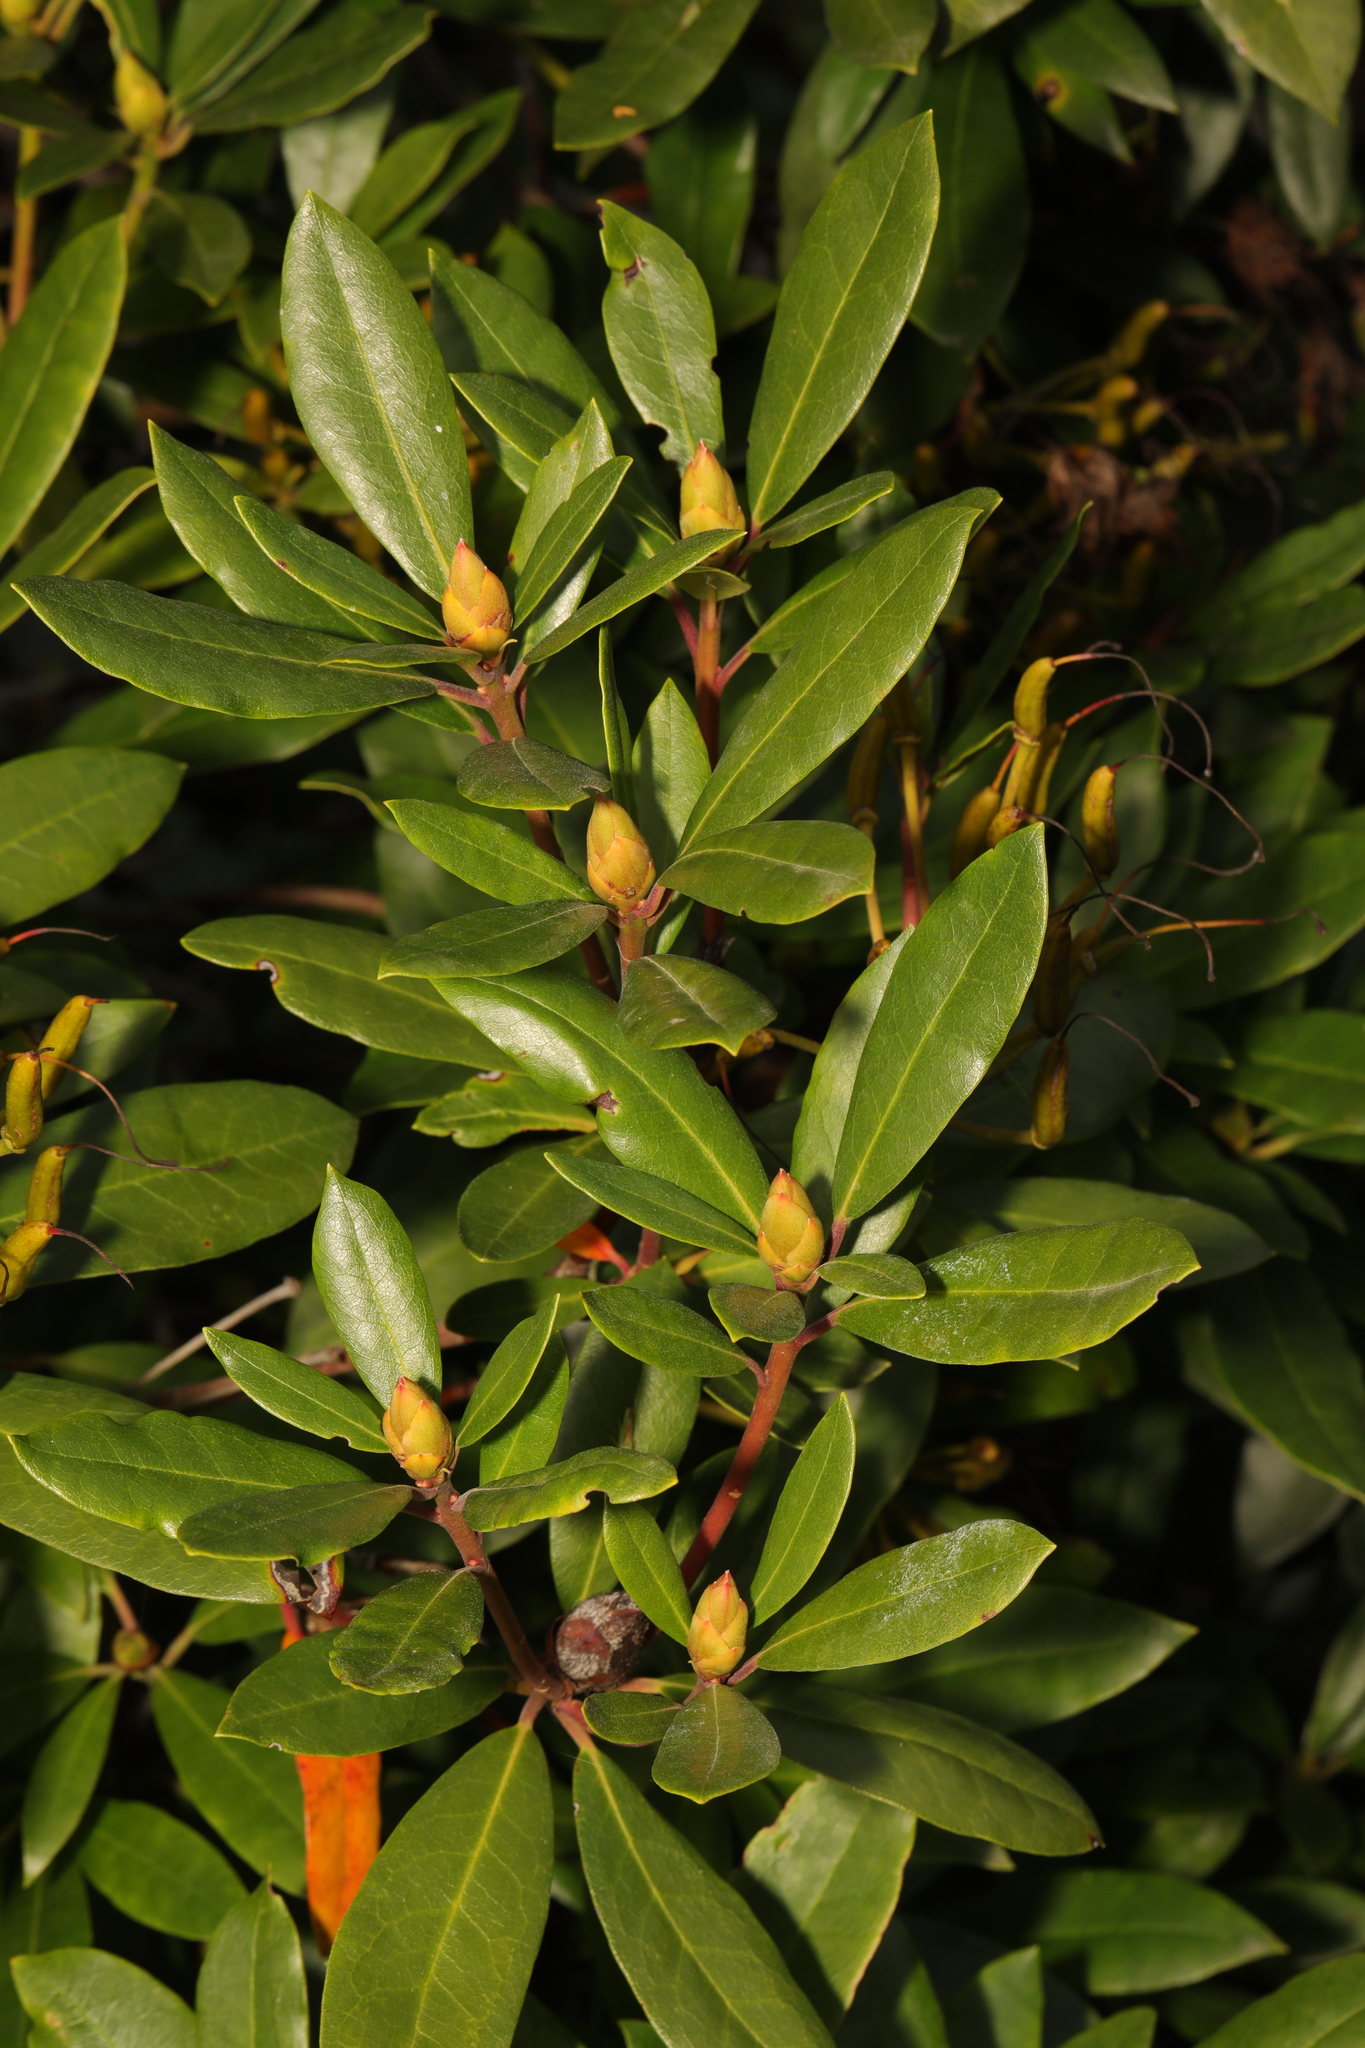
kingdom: Plantae
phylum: Tracheophyta
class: Magnoliopsida
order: Ericales
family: Ericaceae
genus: Rhododendron
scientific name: Rhododendron ponticum
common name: Rhododendron
